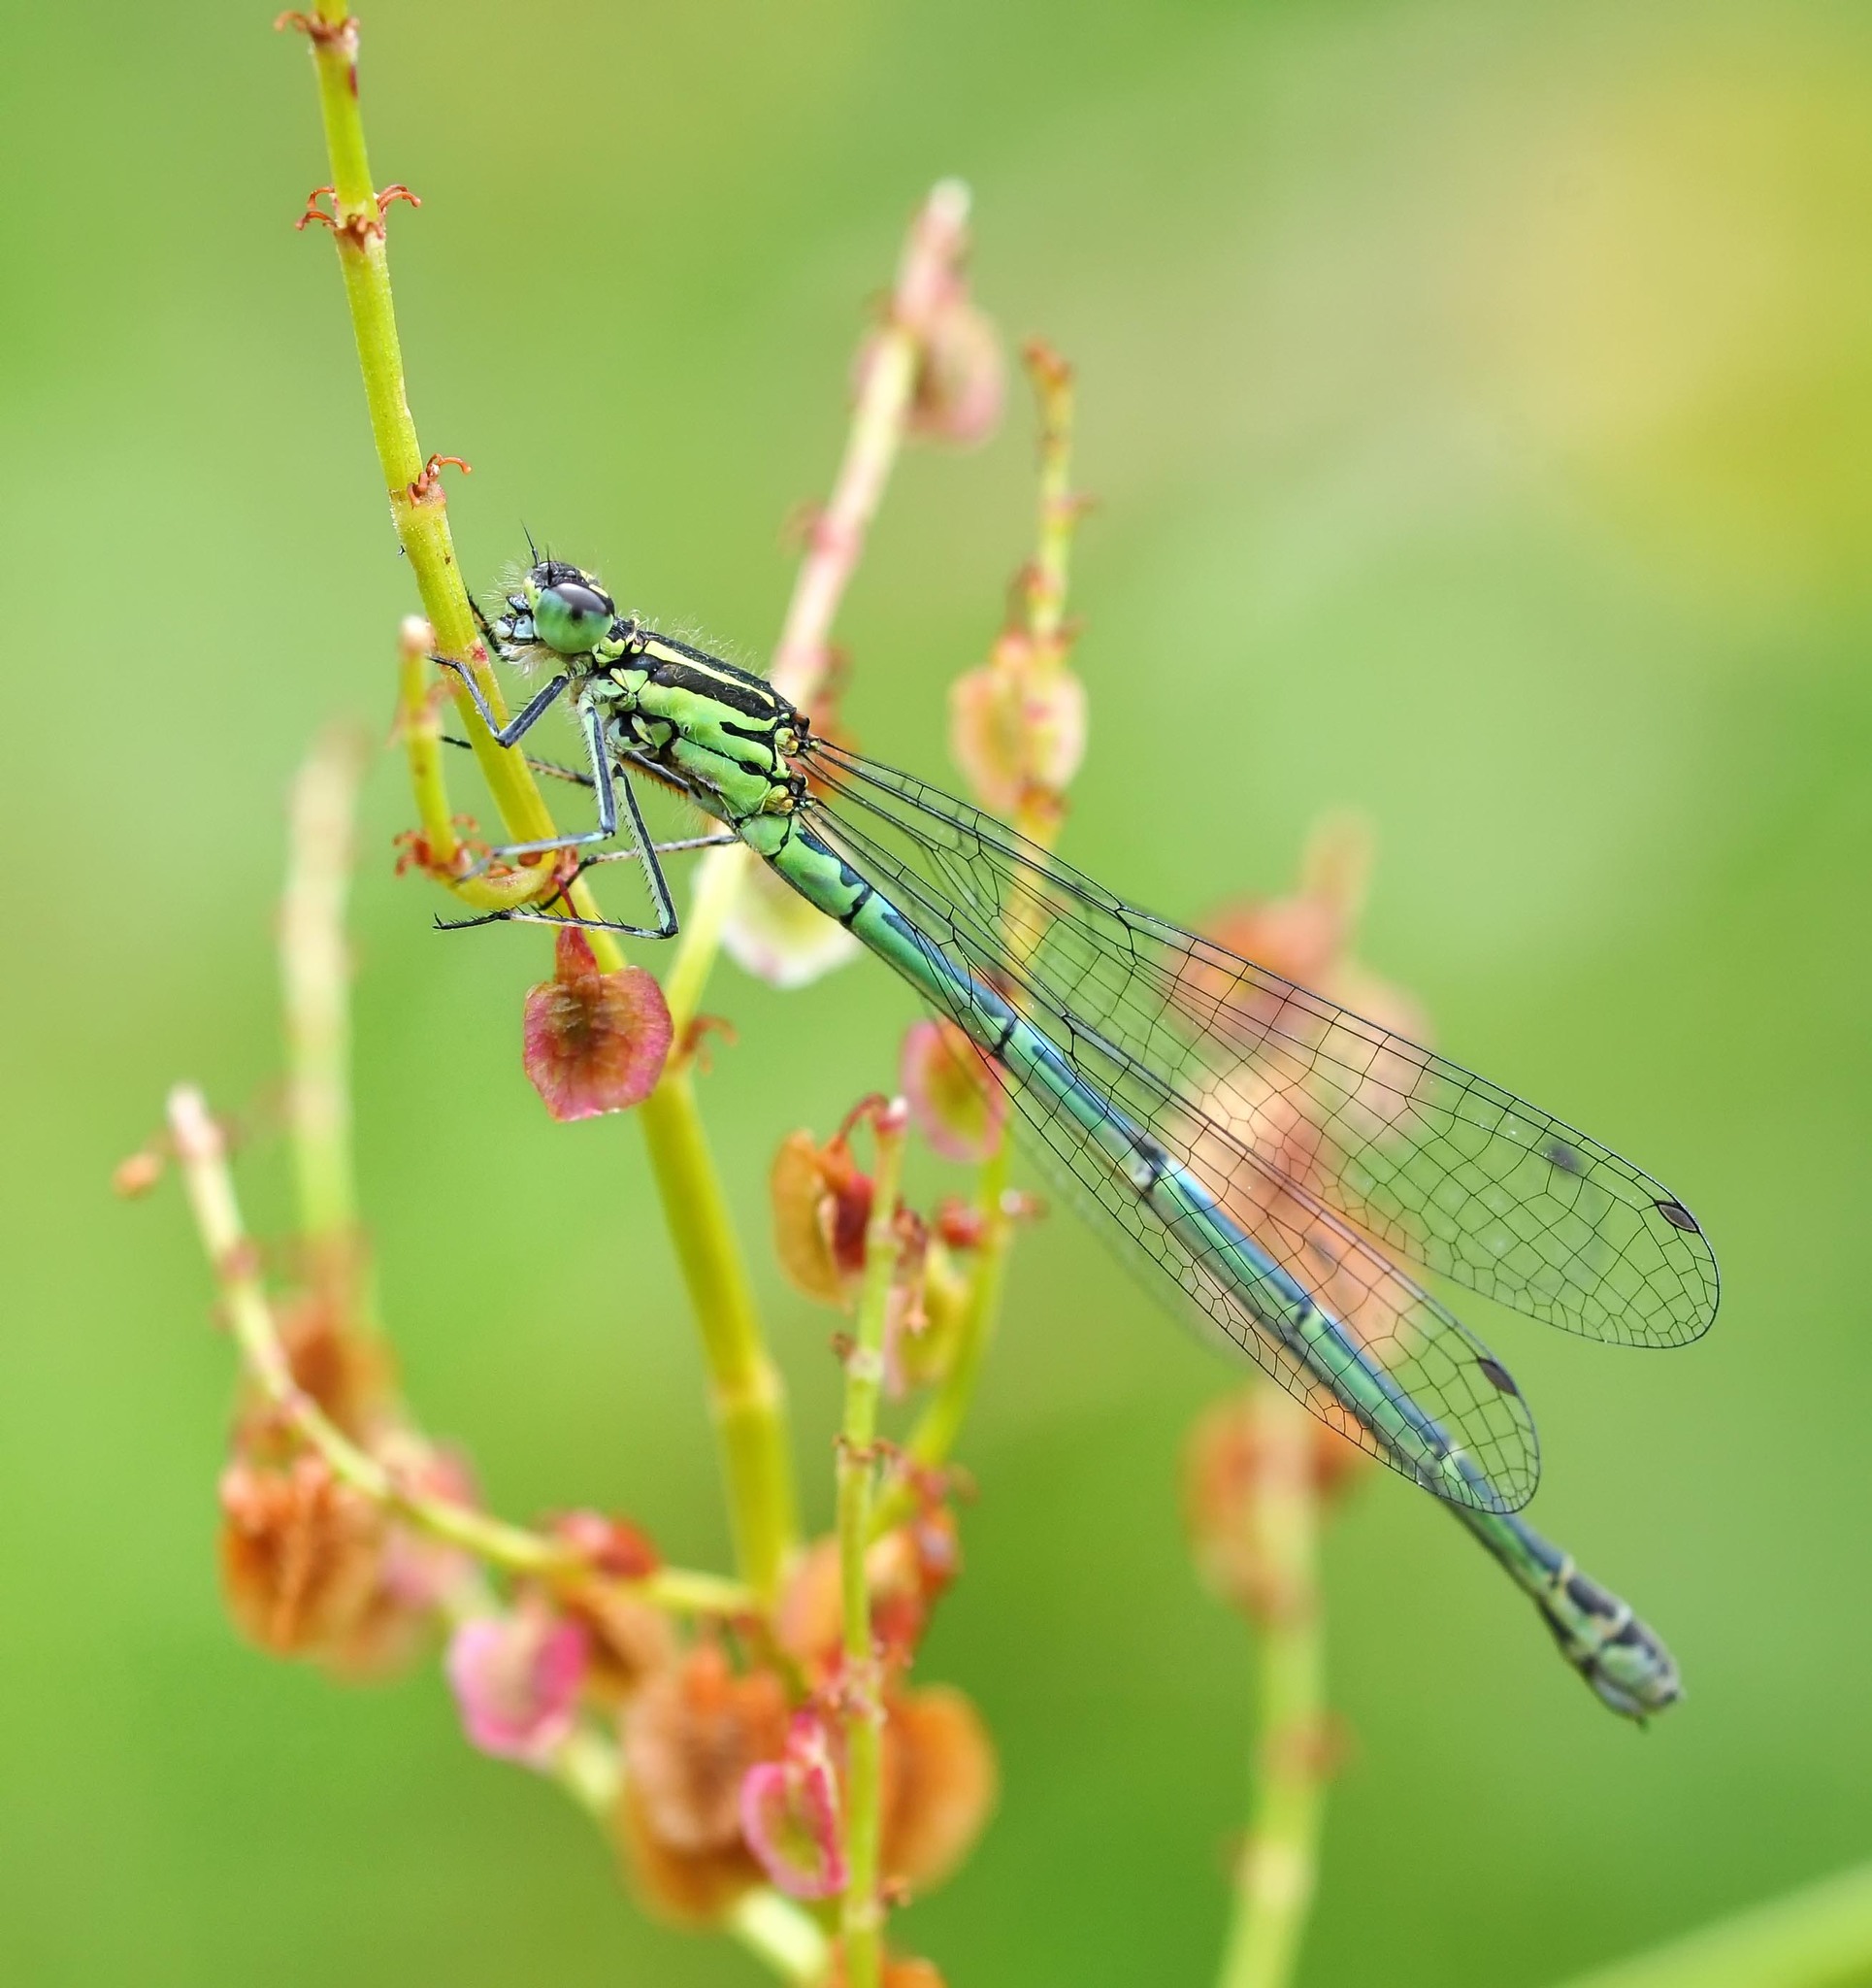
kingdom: Animalia
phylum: Arthropoda
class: Insecta
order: Odonata
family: Coenagrionidae
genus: Coenagrion
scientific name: Coenagrion puella
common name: Azure damselfly
